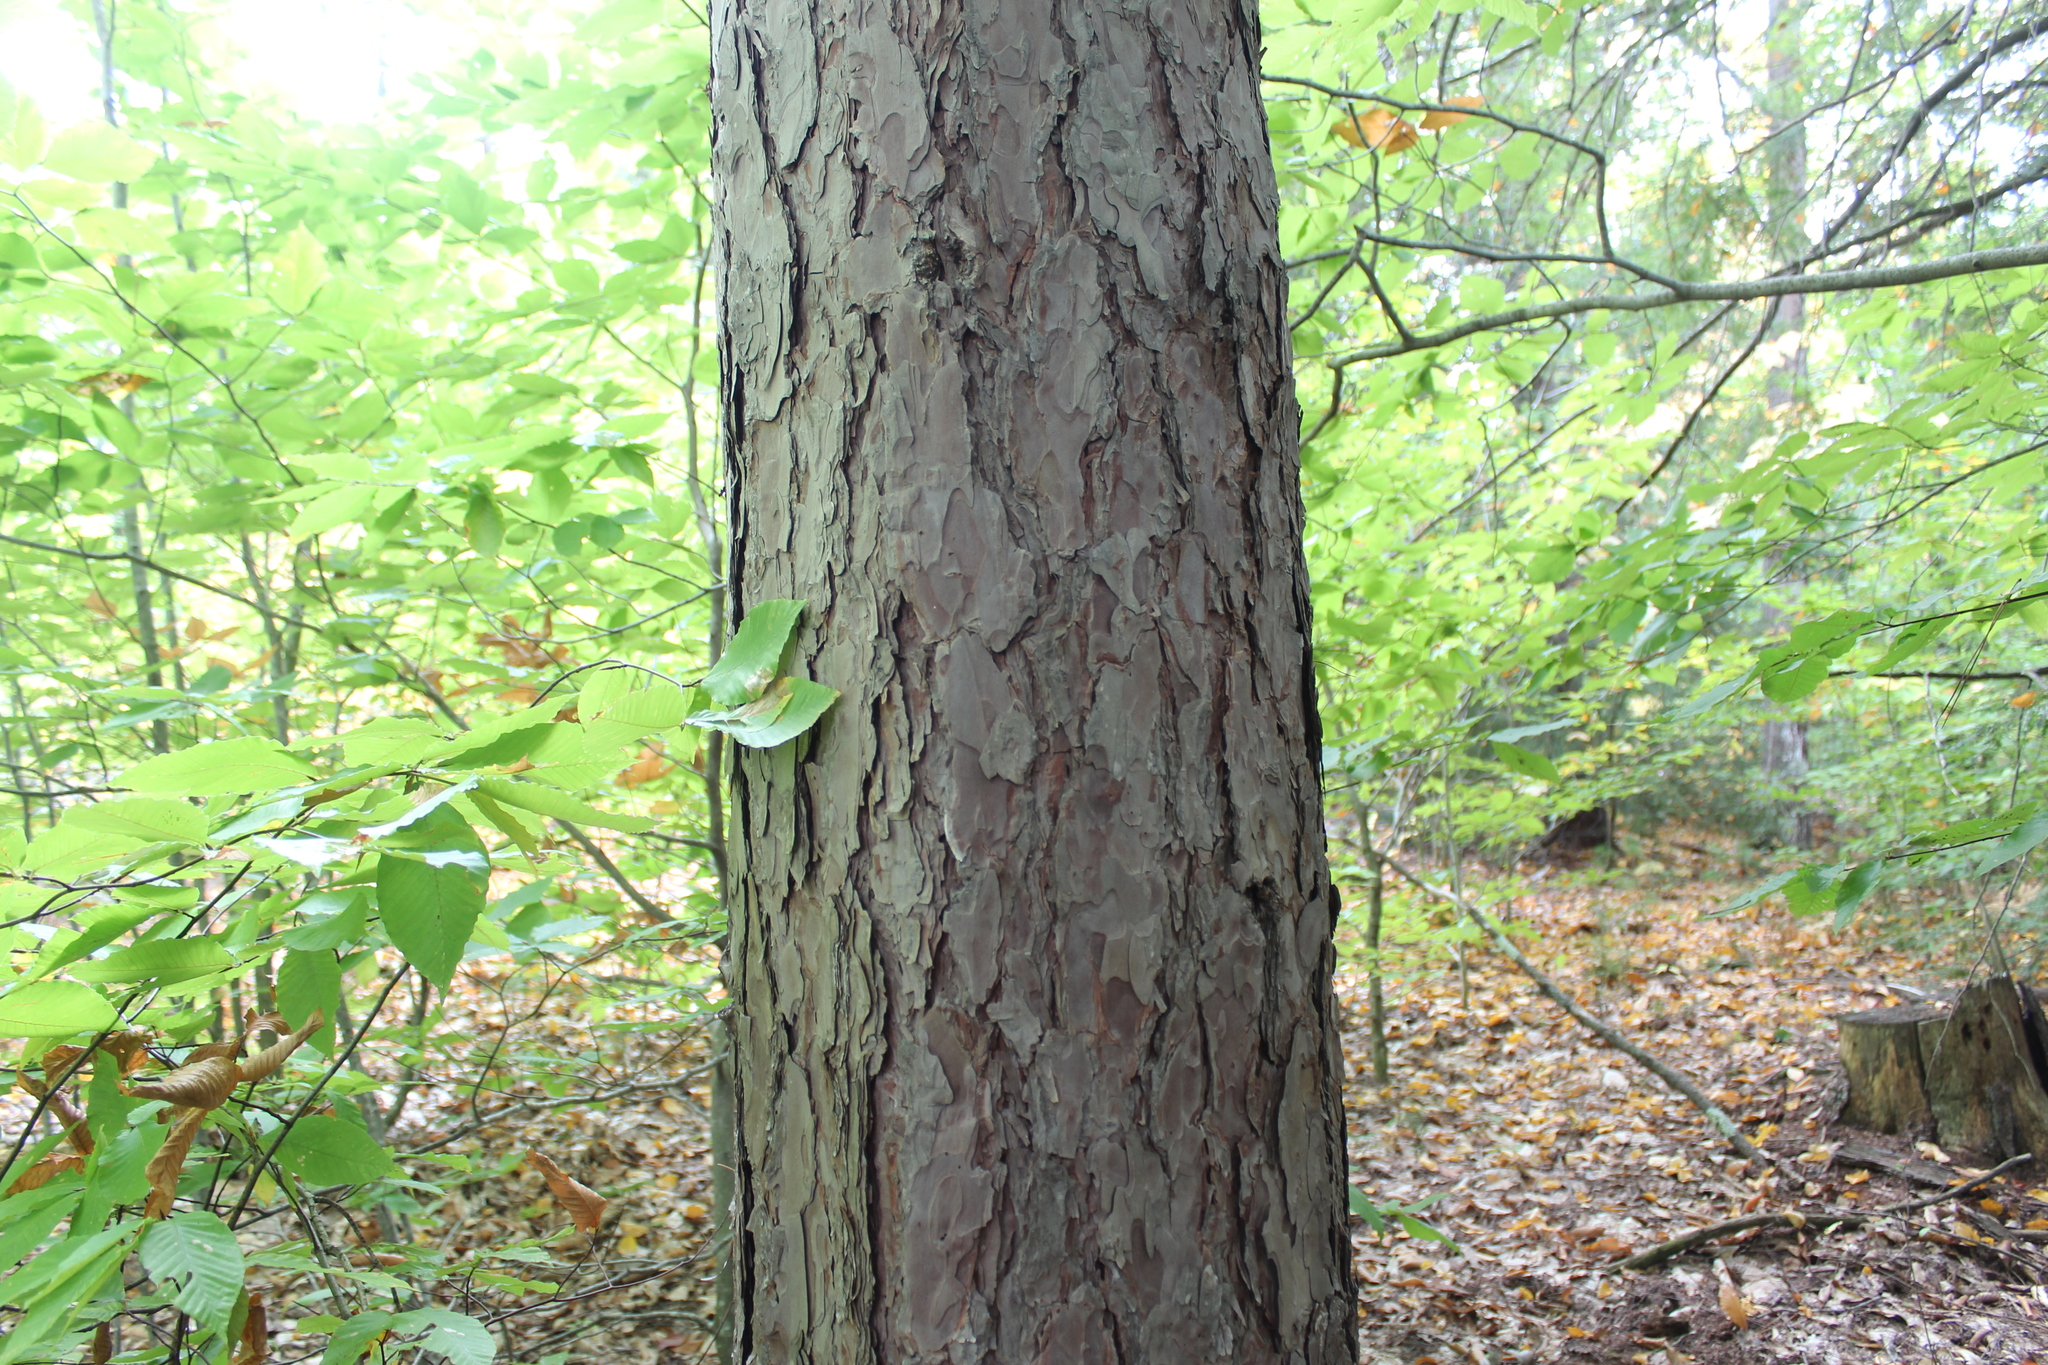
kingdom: Plantae
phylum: Tracheophyta
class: Pinopsida
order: Pinales
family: Pinaceae
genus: Pinus
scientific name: Pinus resinosa
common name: Norway pine
